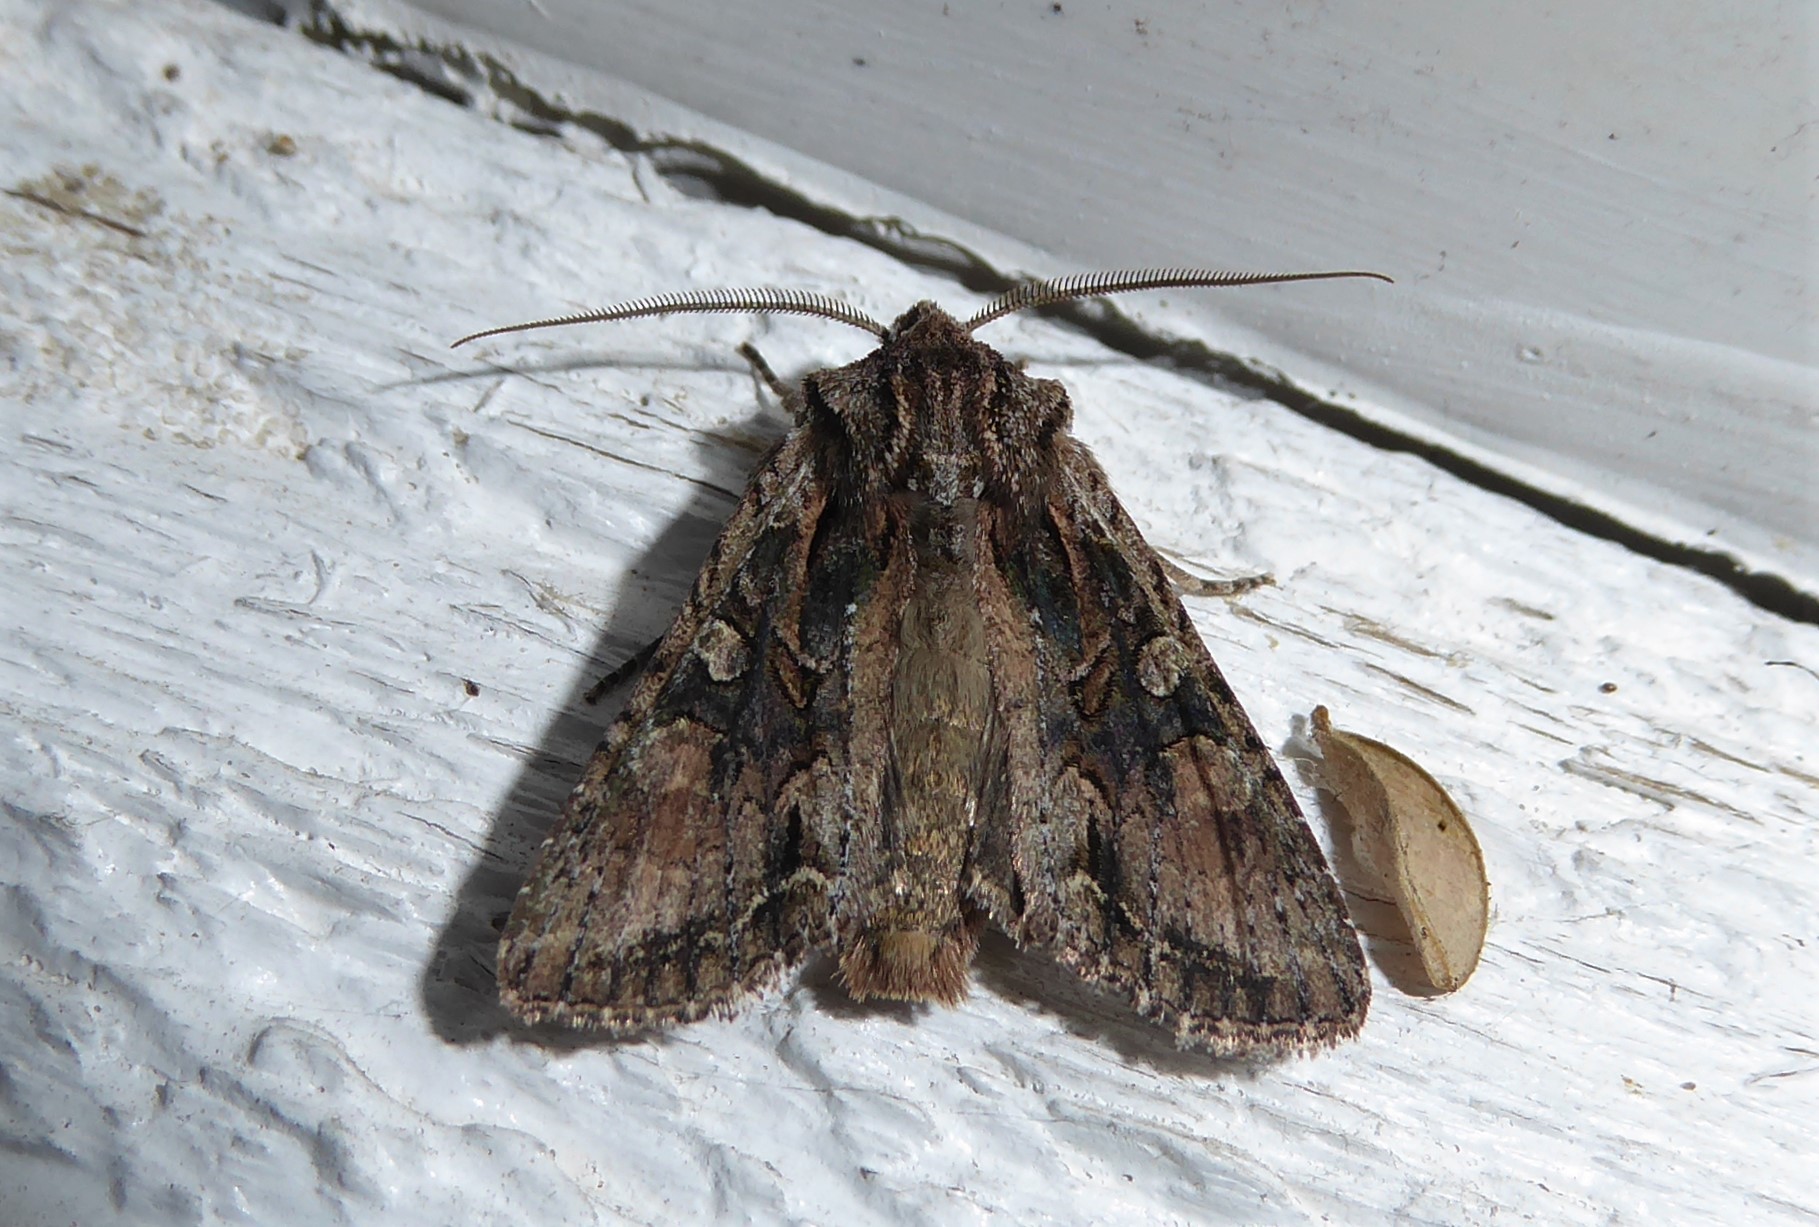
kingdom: Animalia
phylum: Arthropoda
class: Insecta
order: Lepidoptera
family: Noctuidae
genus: Ichneutica
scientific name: Ichneutica mutans
